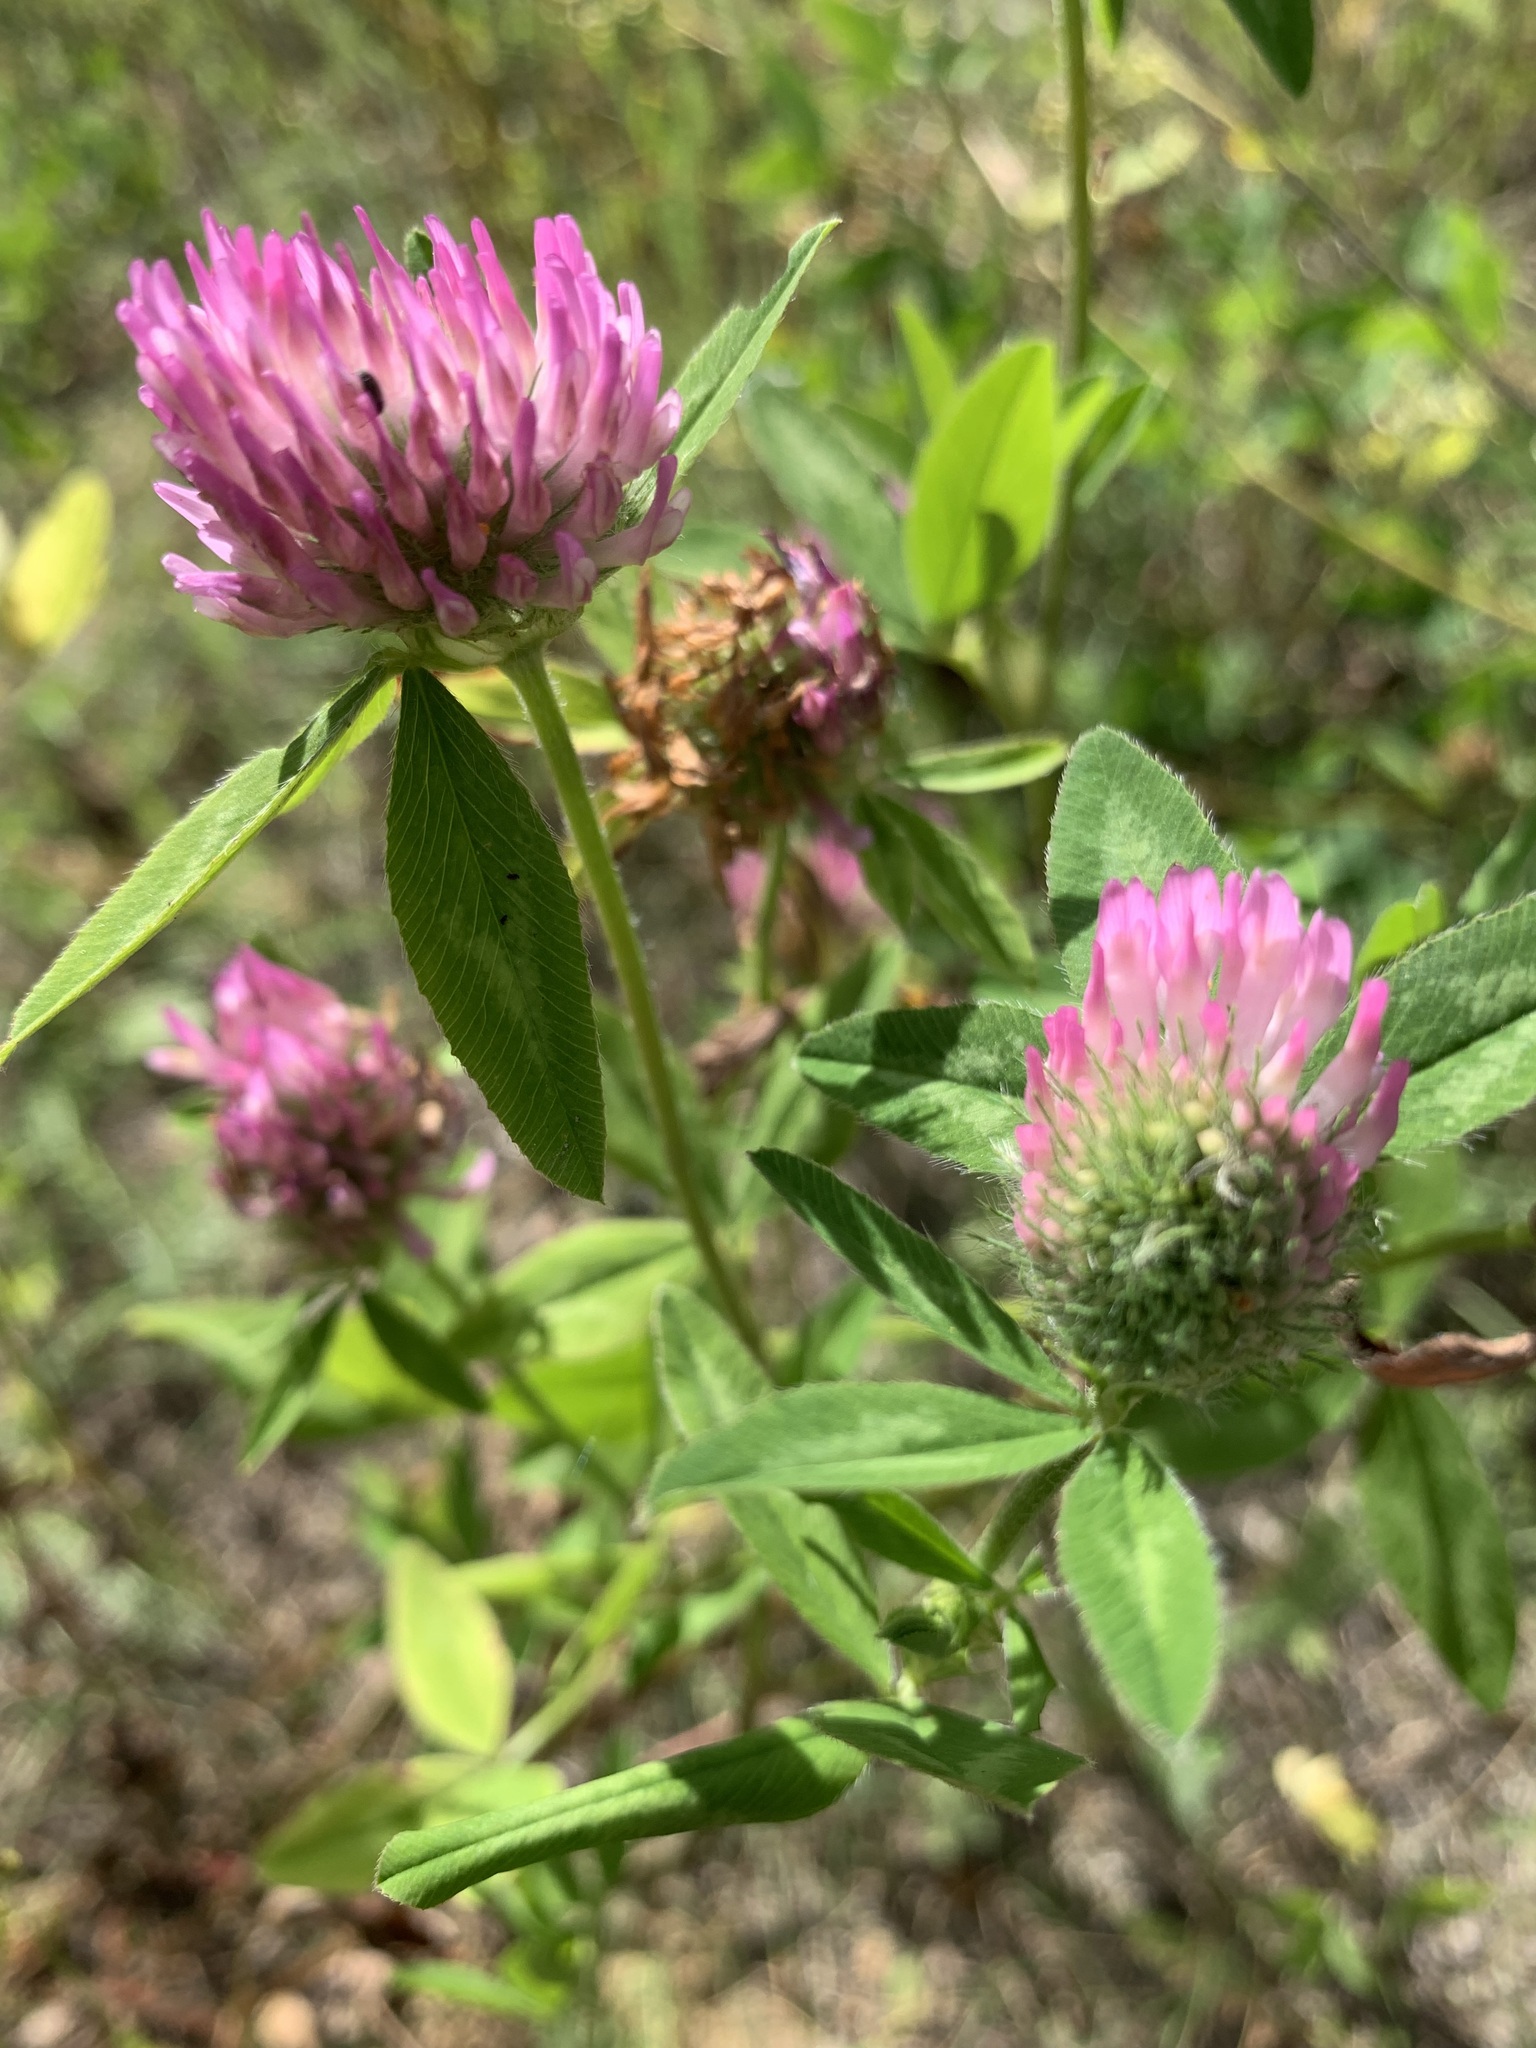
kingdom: Plantae
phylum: Tracheophyta
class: Magnoliopsida
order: Fabales
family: Fabaceae
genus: Trifolium
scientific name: Trifolium pratense
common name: Red clover
